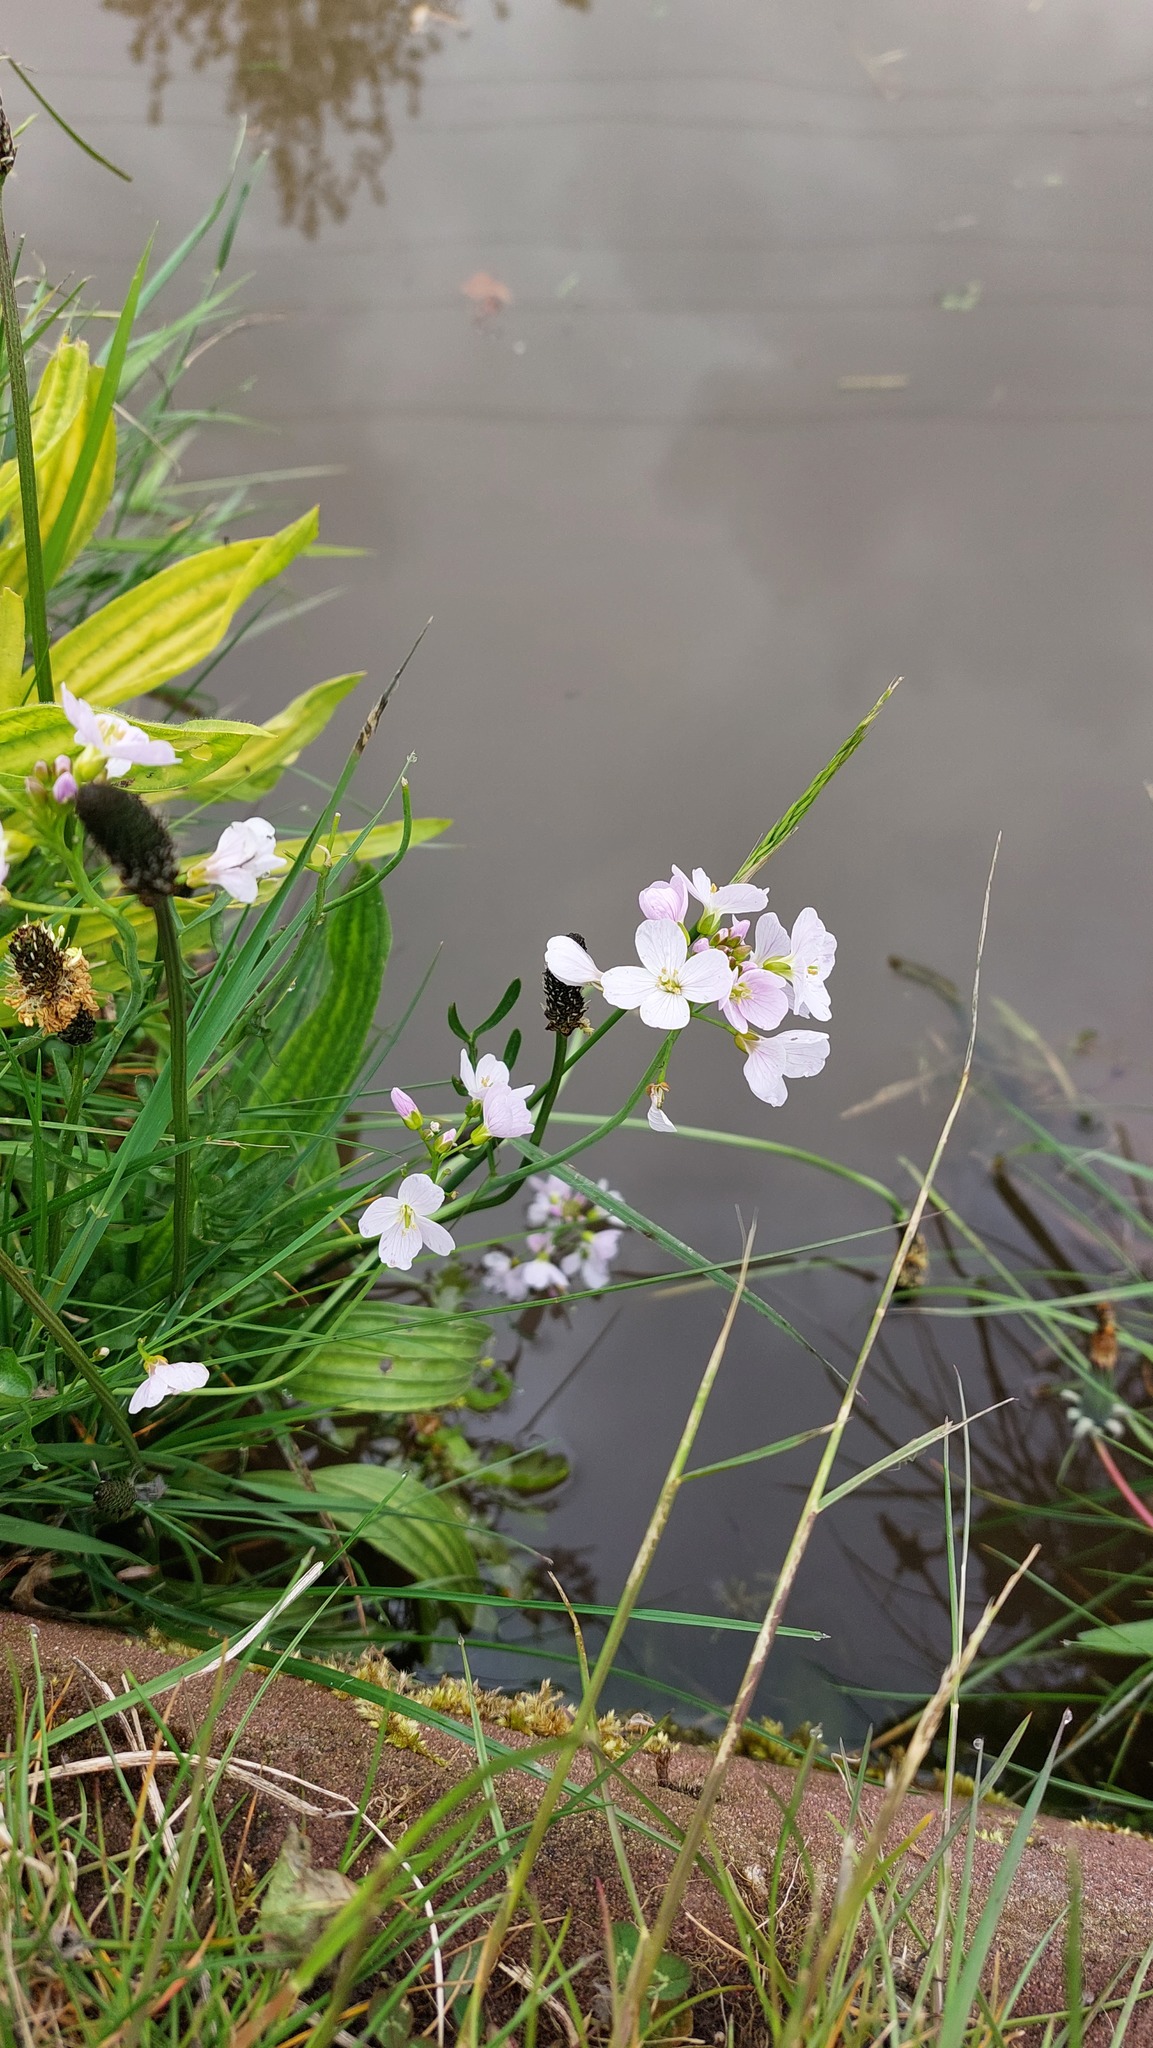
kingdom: Plantae
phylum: Tracheophyta
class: Magnoliopsida
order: Brassicales
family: Brassicaceae
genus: Cardamine
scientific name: Cardamine pratensis
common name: Cuckoo flower
